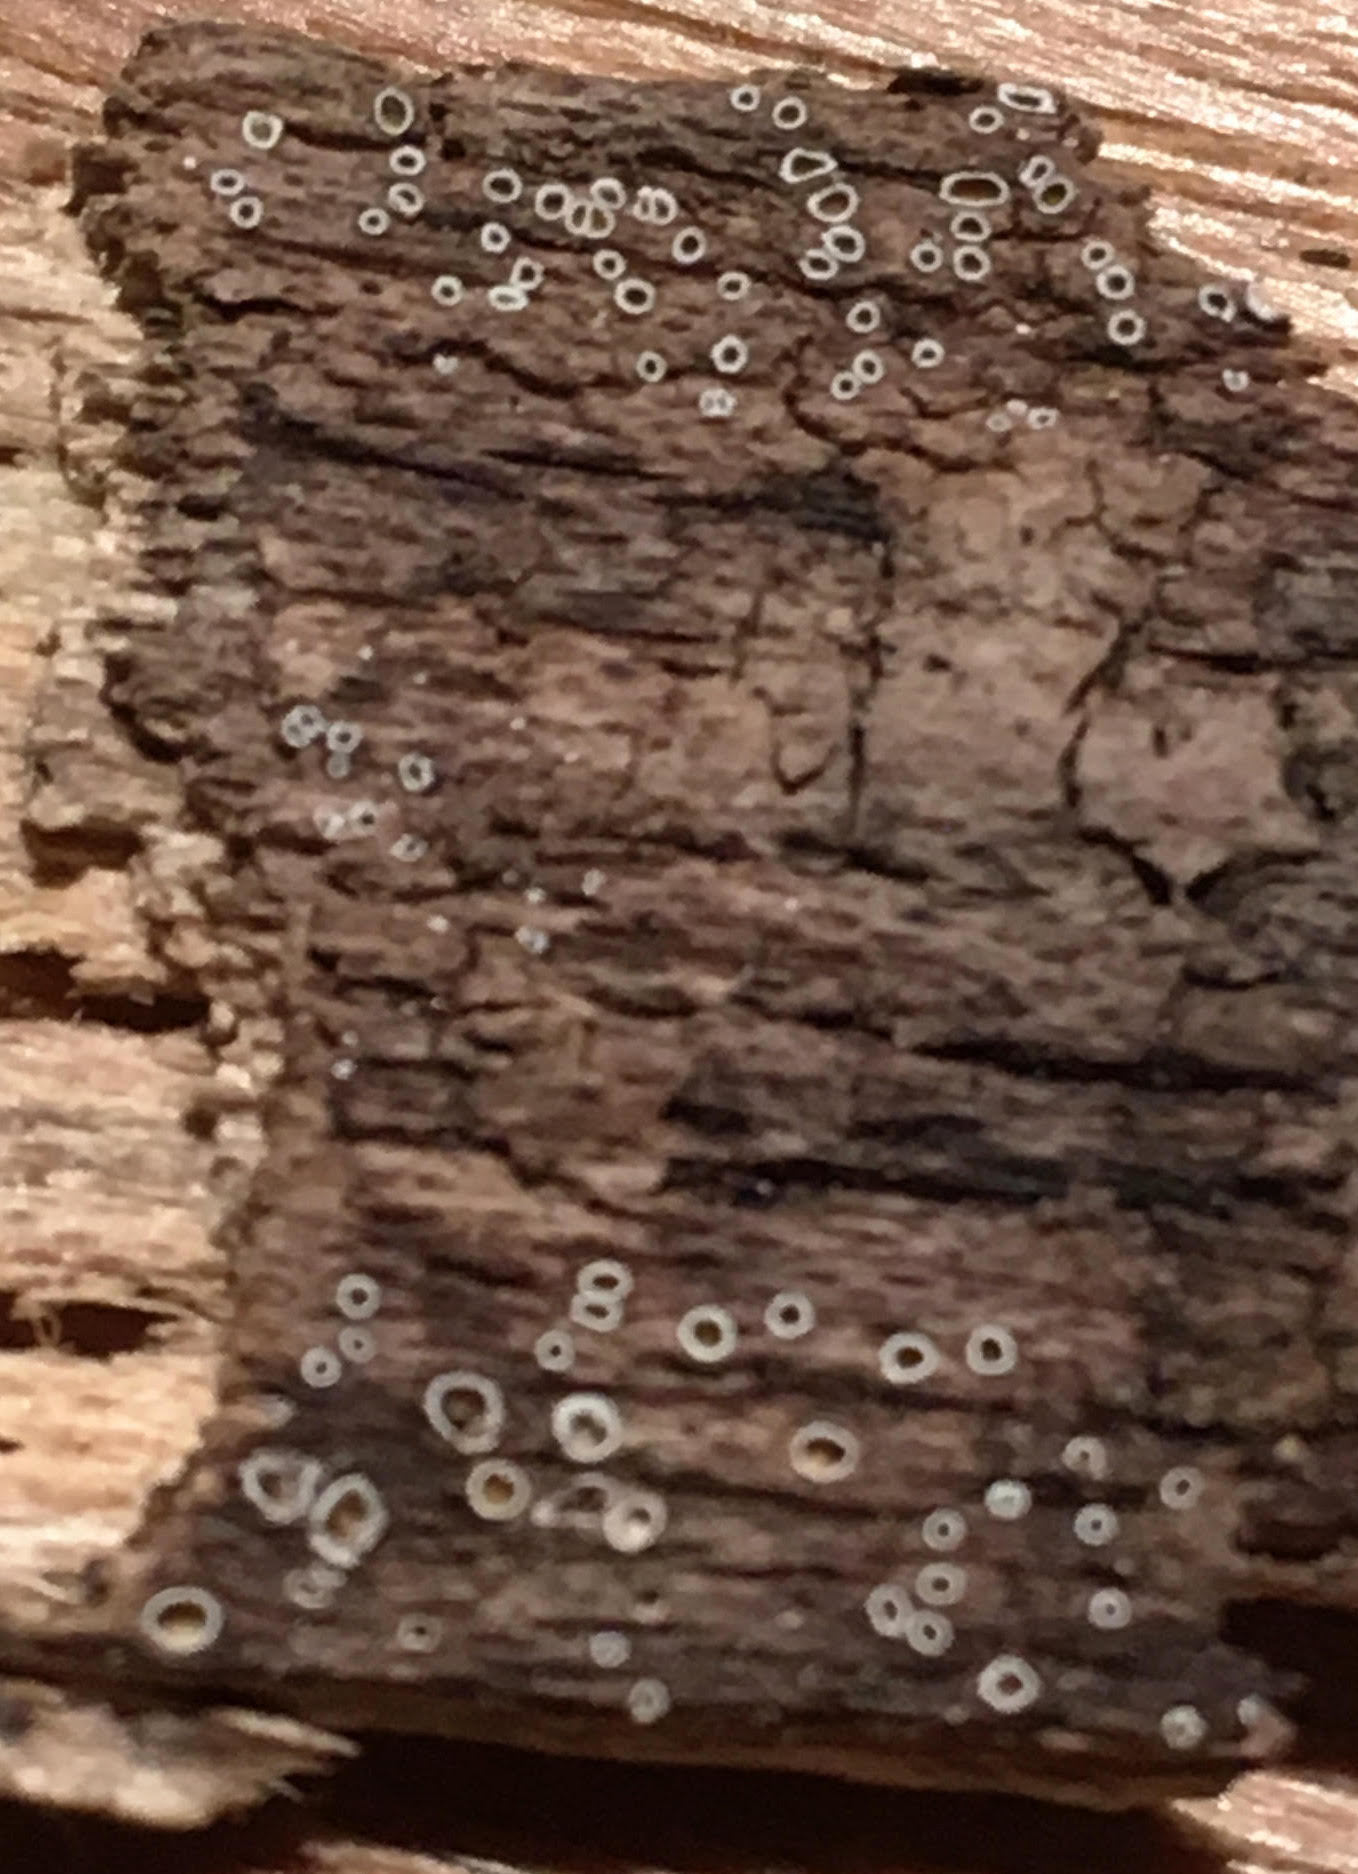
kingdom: Fungi
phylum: Ascomycota
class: Lecanoromycetes
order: Ostropales
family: Stictidaceae
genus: Stictis
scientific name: Stictis radiata
